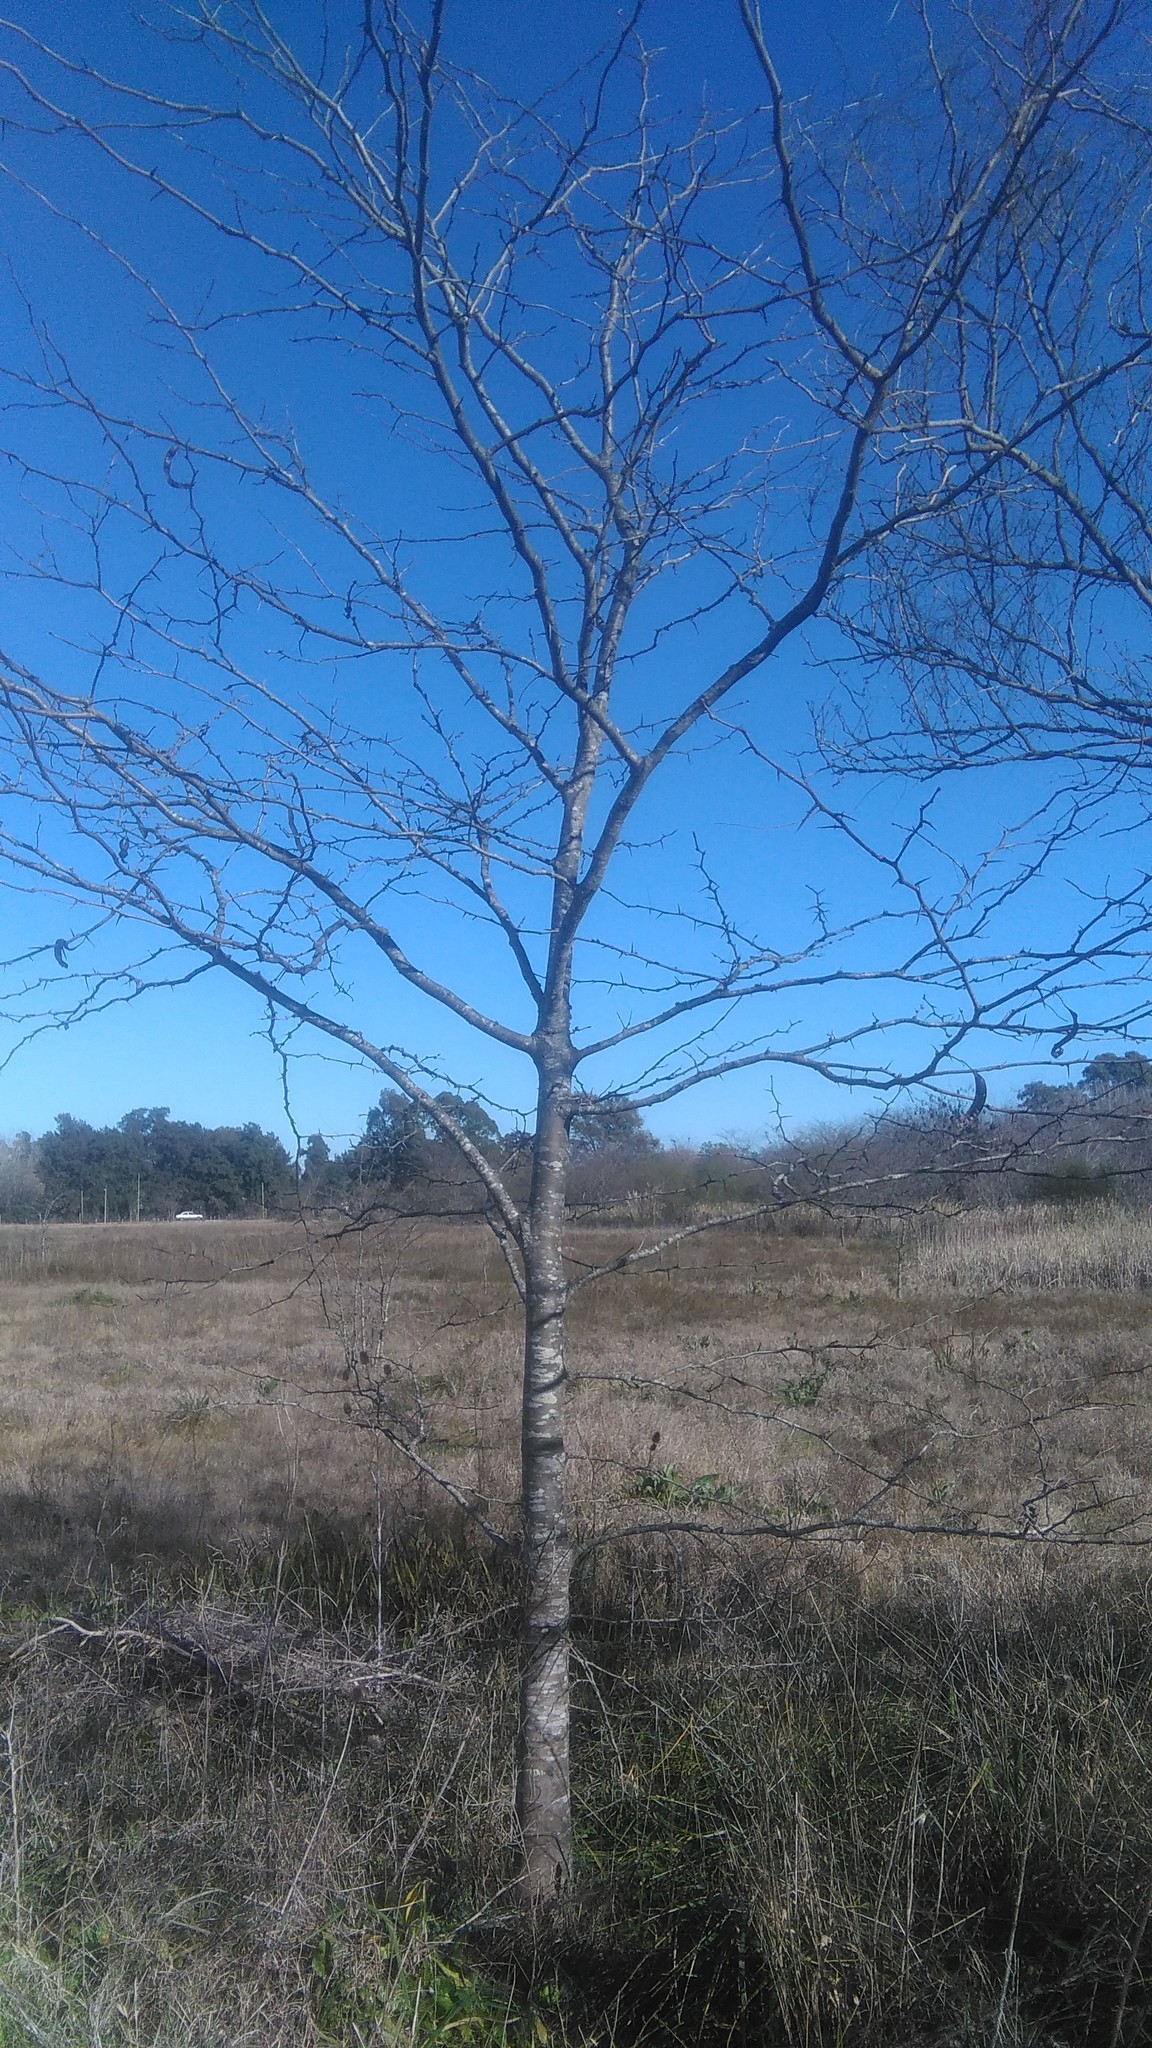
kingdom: Plantae
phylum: Tracheophyta
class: Magnoliopsida
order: Fabales
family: Fabaceae
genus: Gleditsia
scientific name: Gleditsia triacanthos
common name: Common honeylocust
